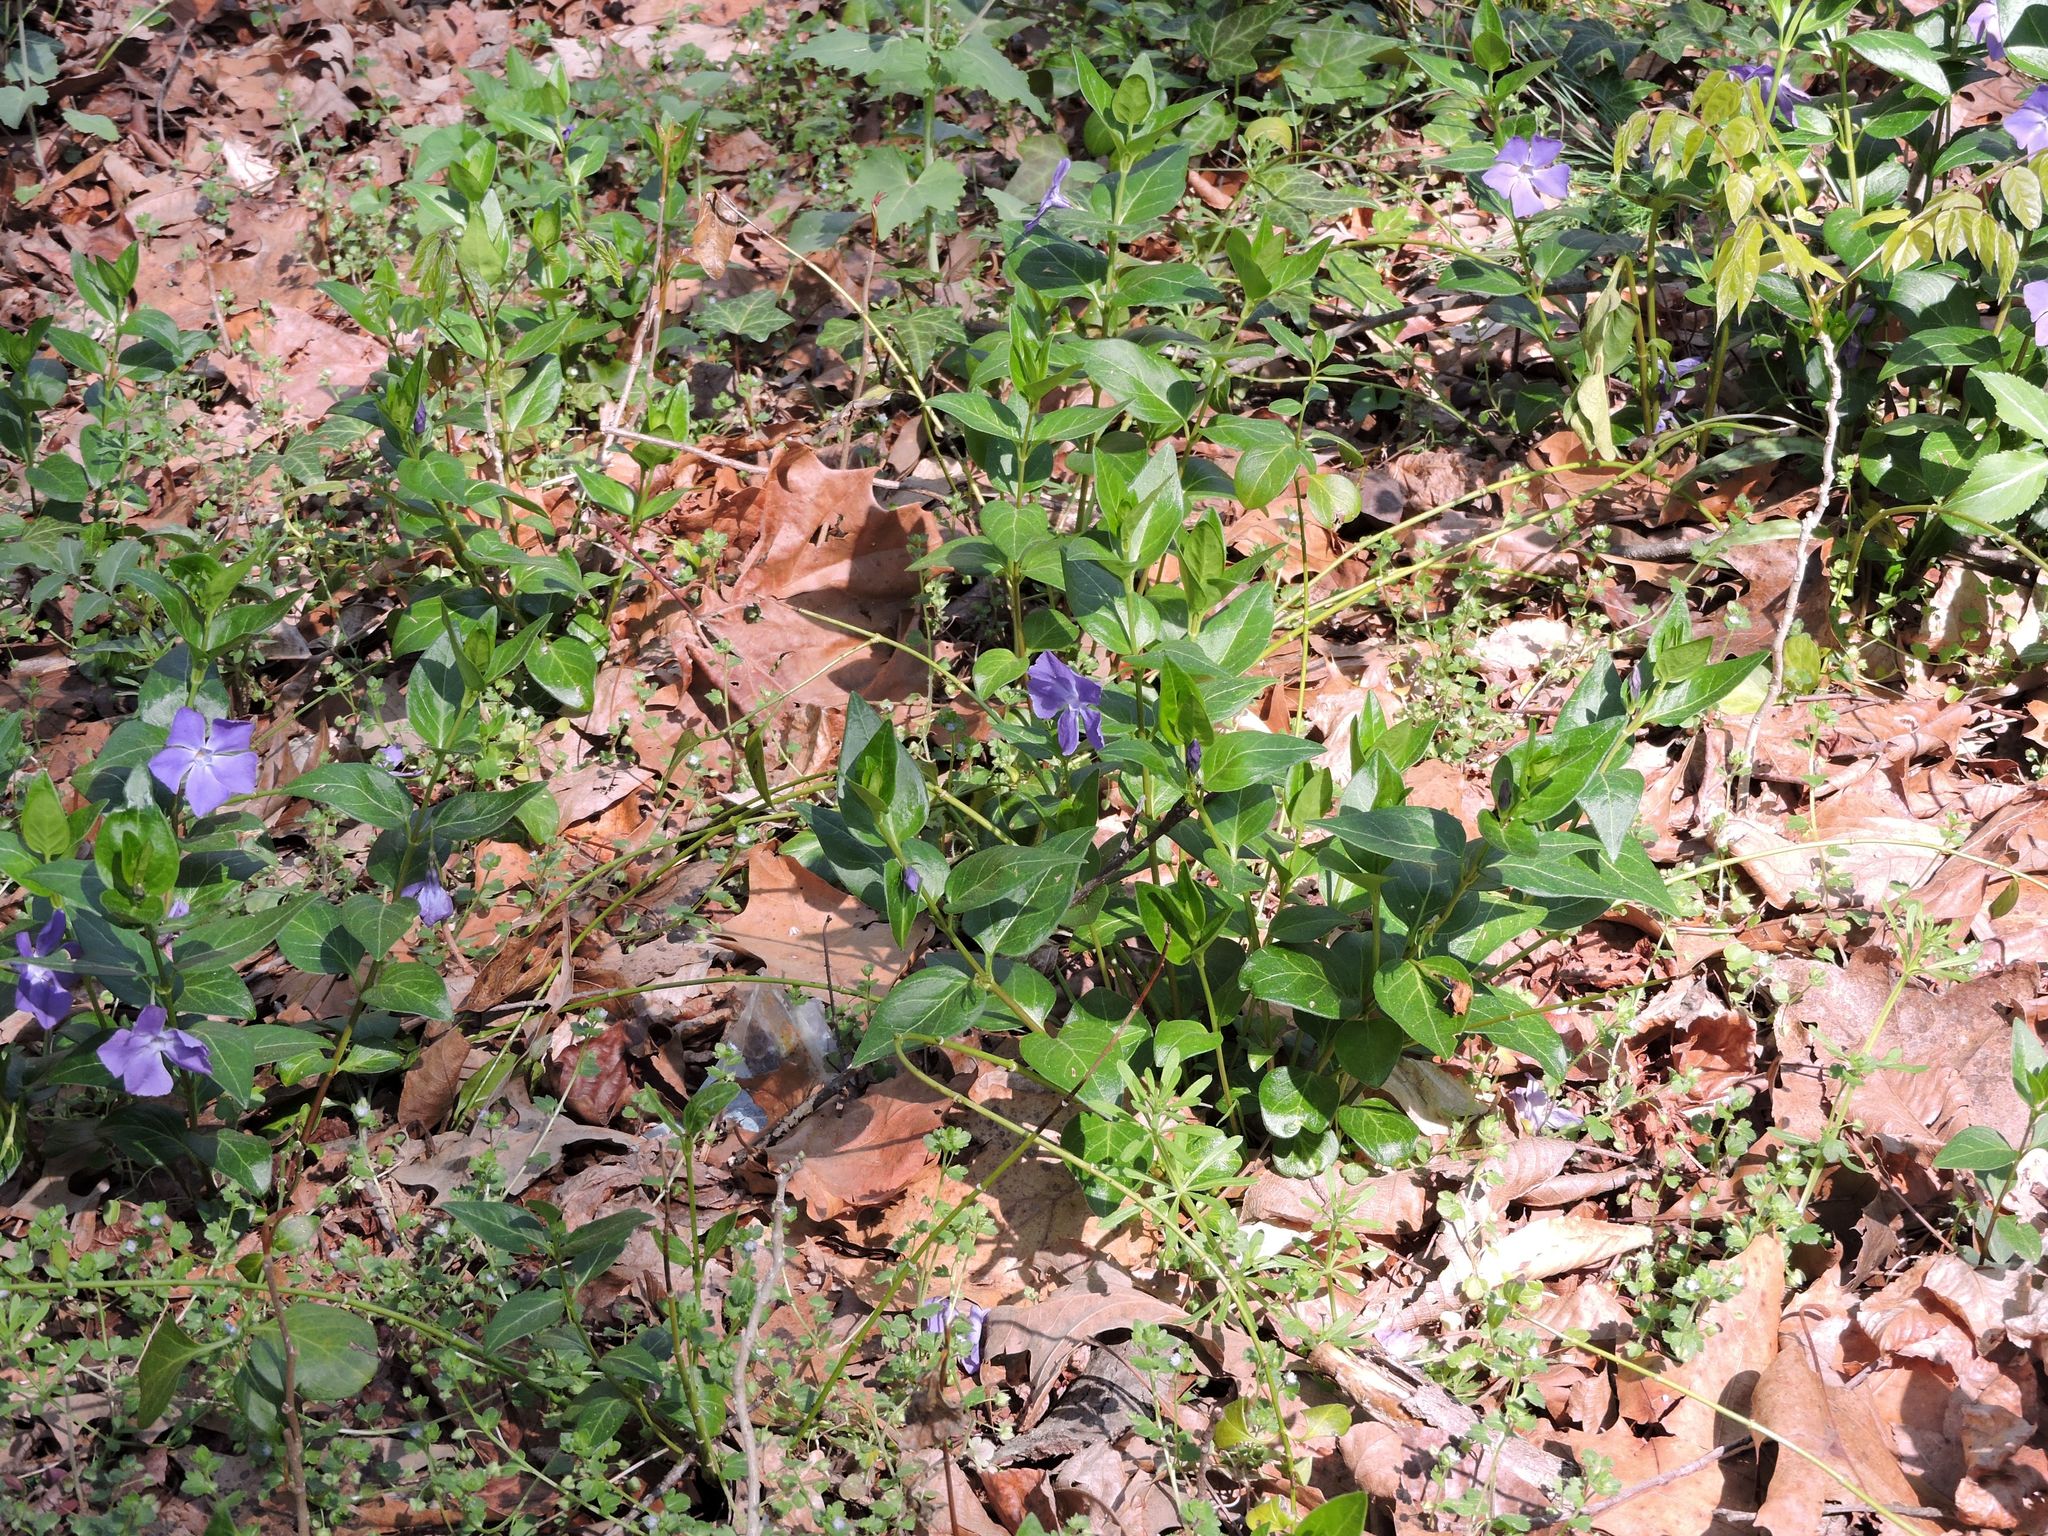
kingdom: Plantae
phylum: Tracheophyta
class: Magnoliopsida
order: Gentianales
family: Apocynaceae
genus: Vinca
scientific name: Vinca major
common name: Greater periwinkle
